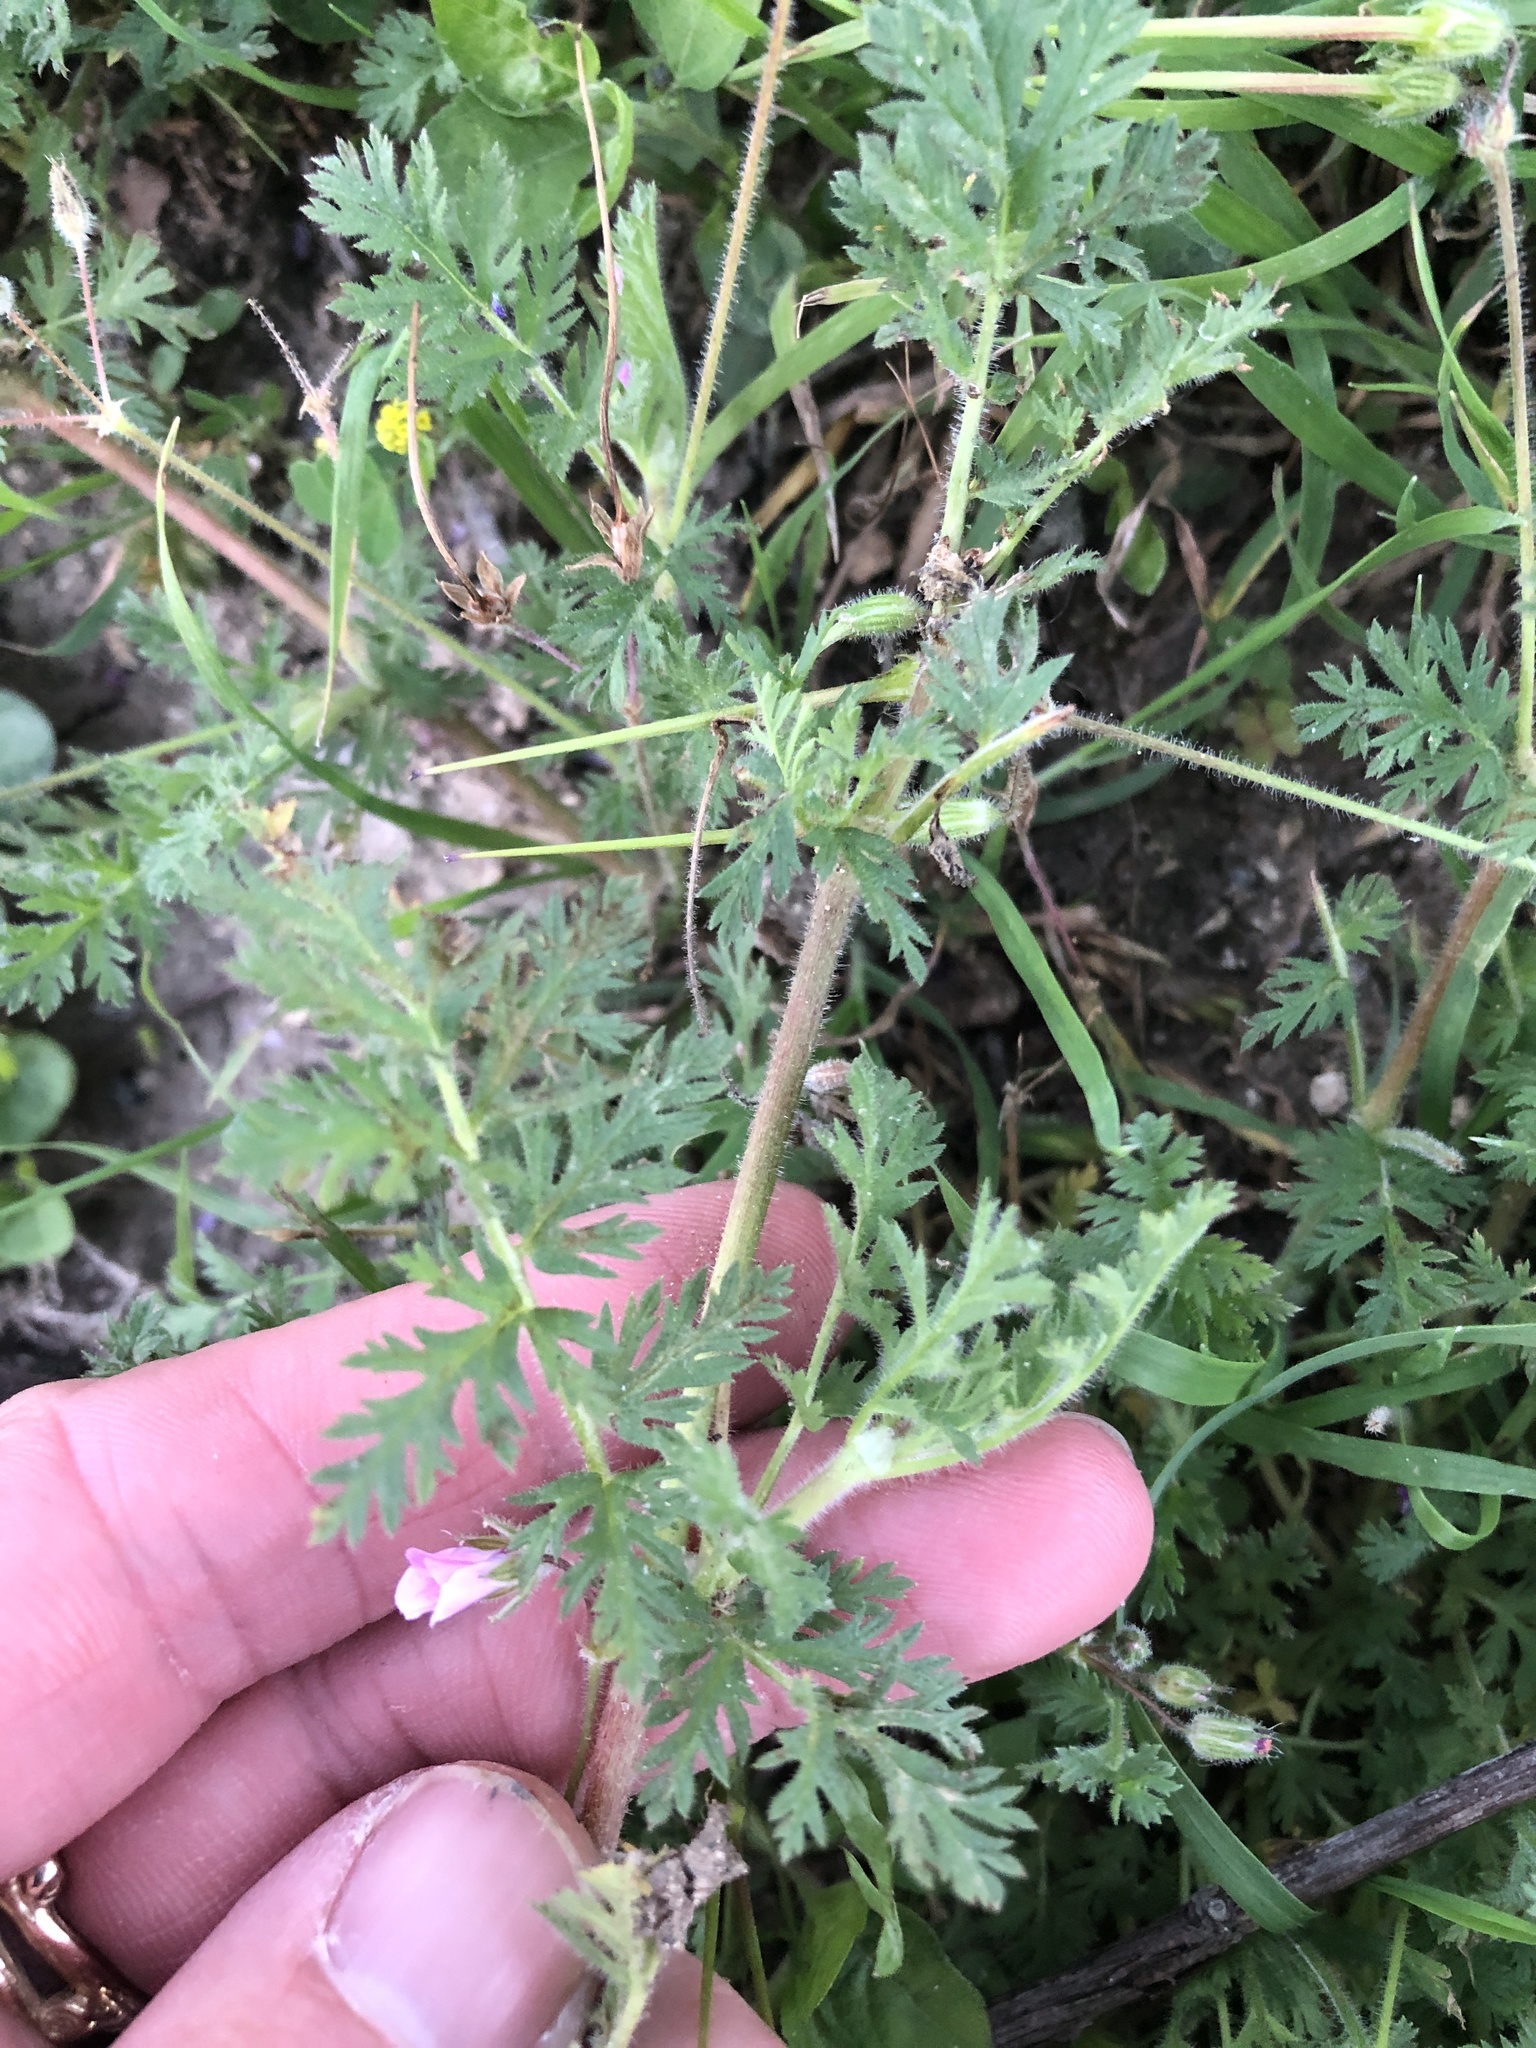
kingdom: Plantae
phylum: Tracheophyta
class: Magnoliopsida
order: Geraniales
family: Geraniaceae
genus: Erodium
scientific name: Erodium cicutarium
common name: Common stork's-bill
